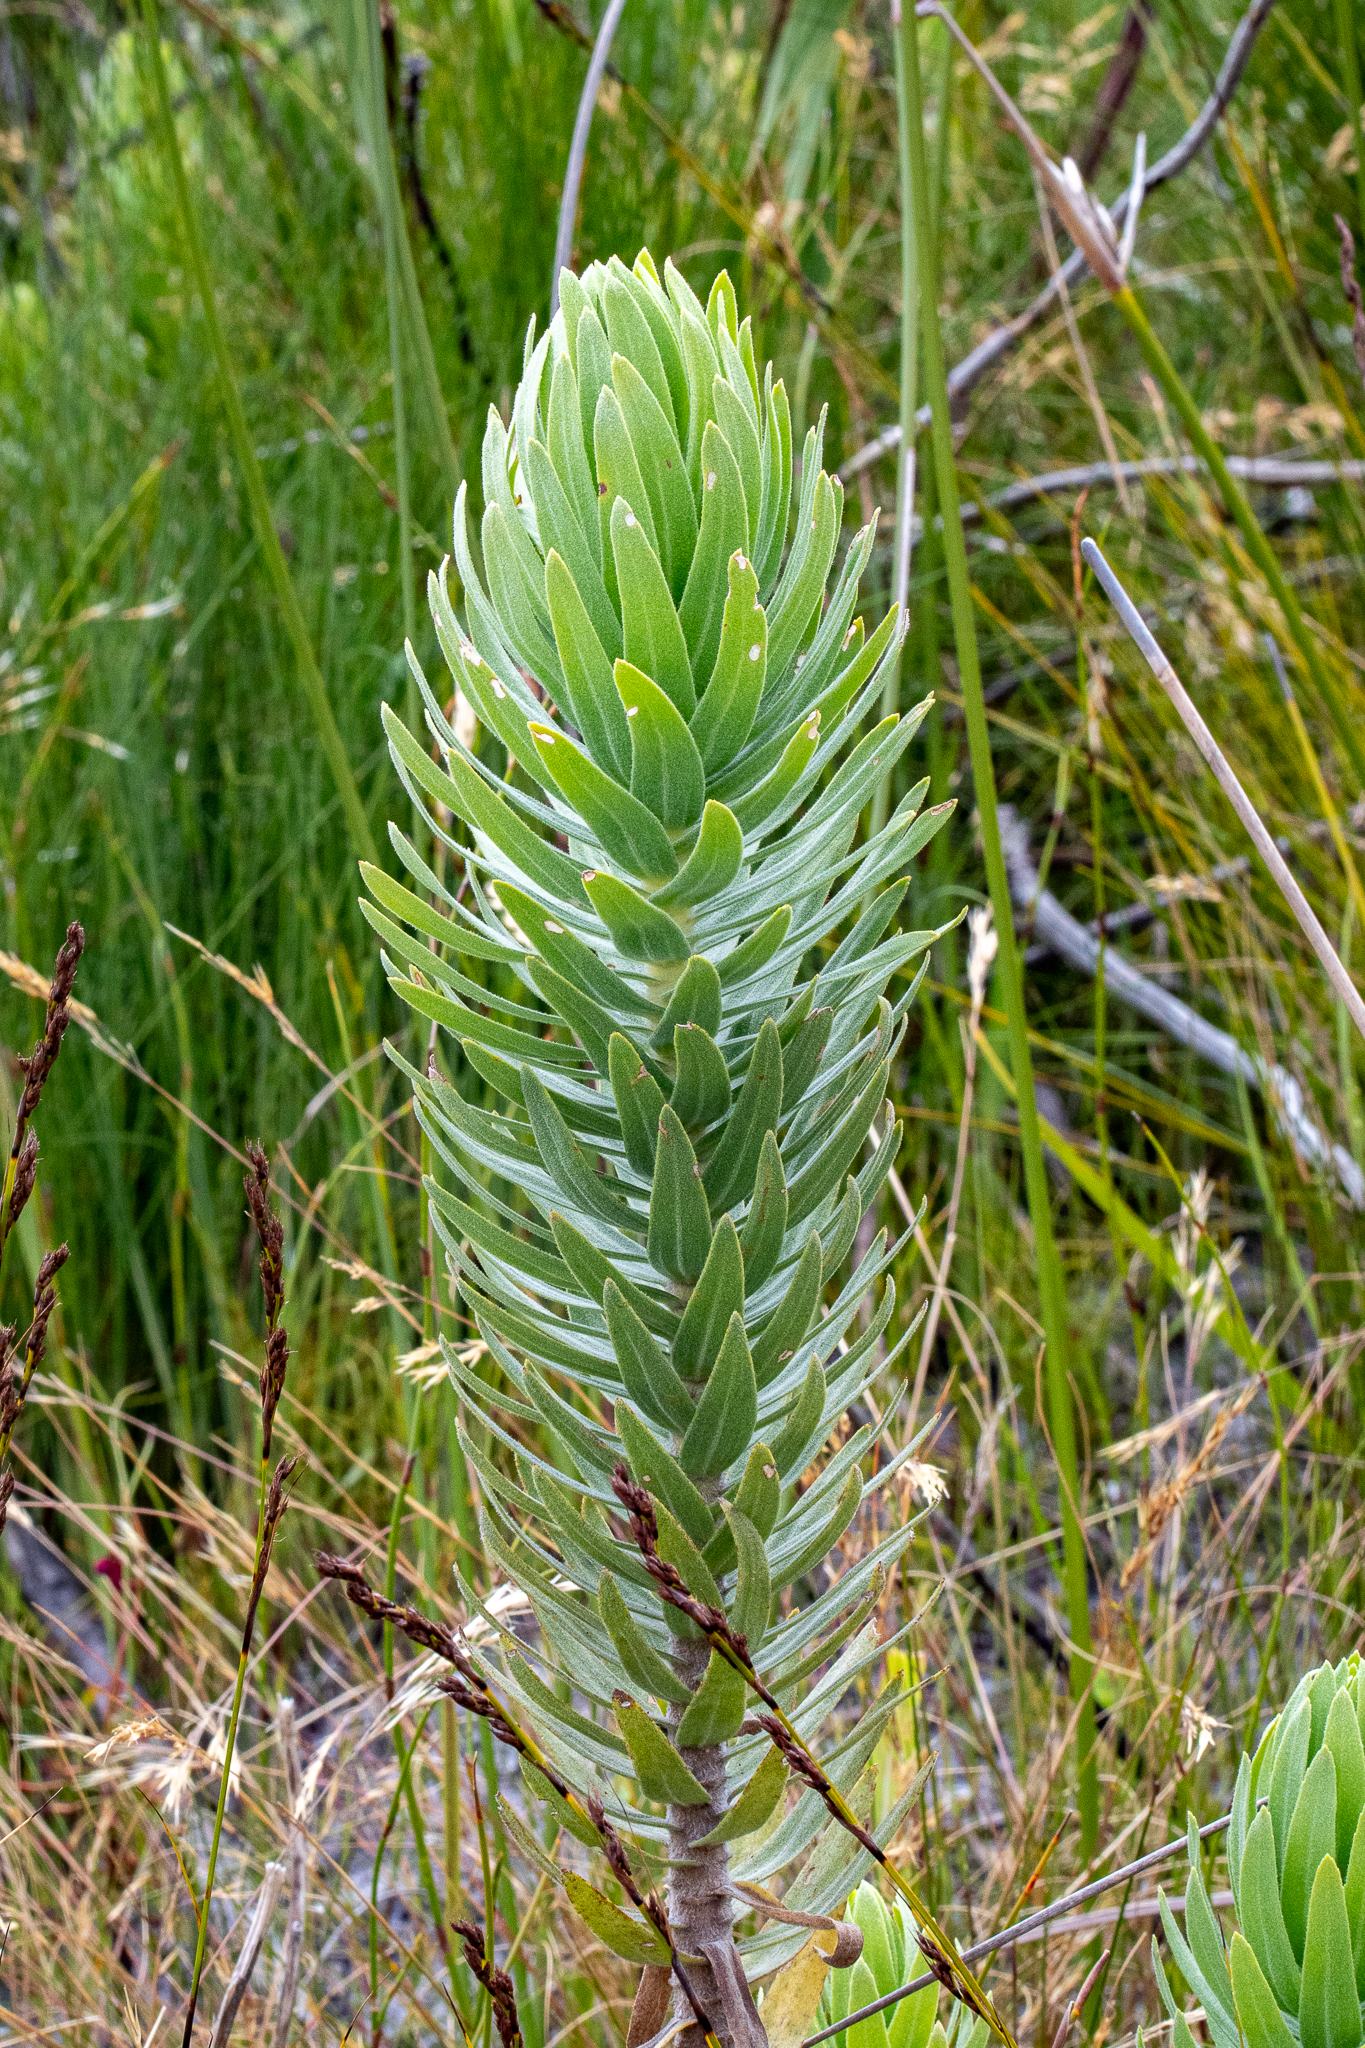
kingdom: Plantae
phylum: Tracheophyta
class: Magnoliopsida
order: Asterales
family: Asteraceae
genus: Osmitopsis
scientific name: Osmitopsis asteriscoides
